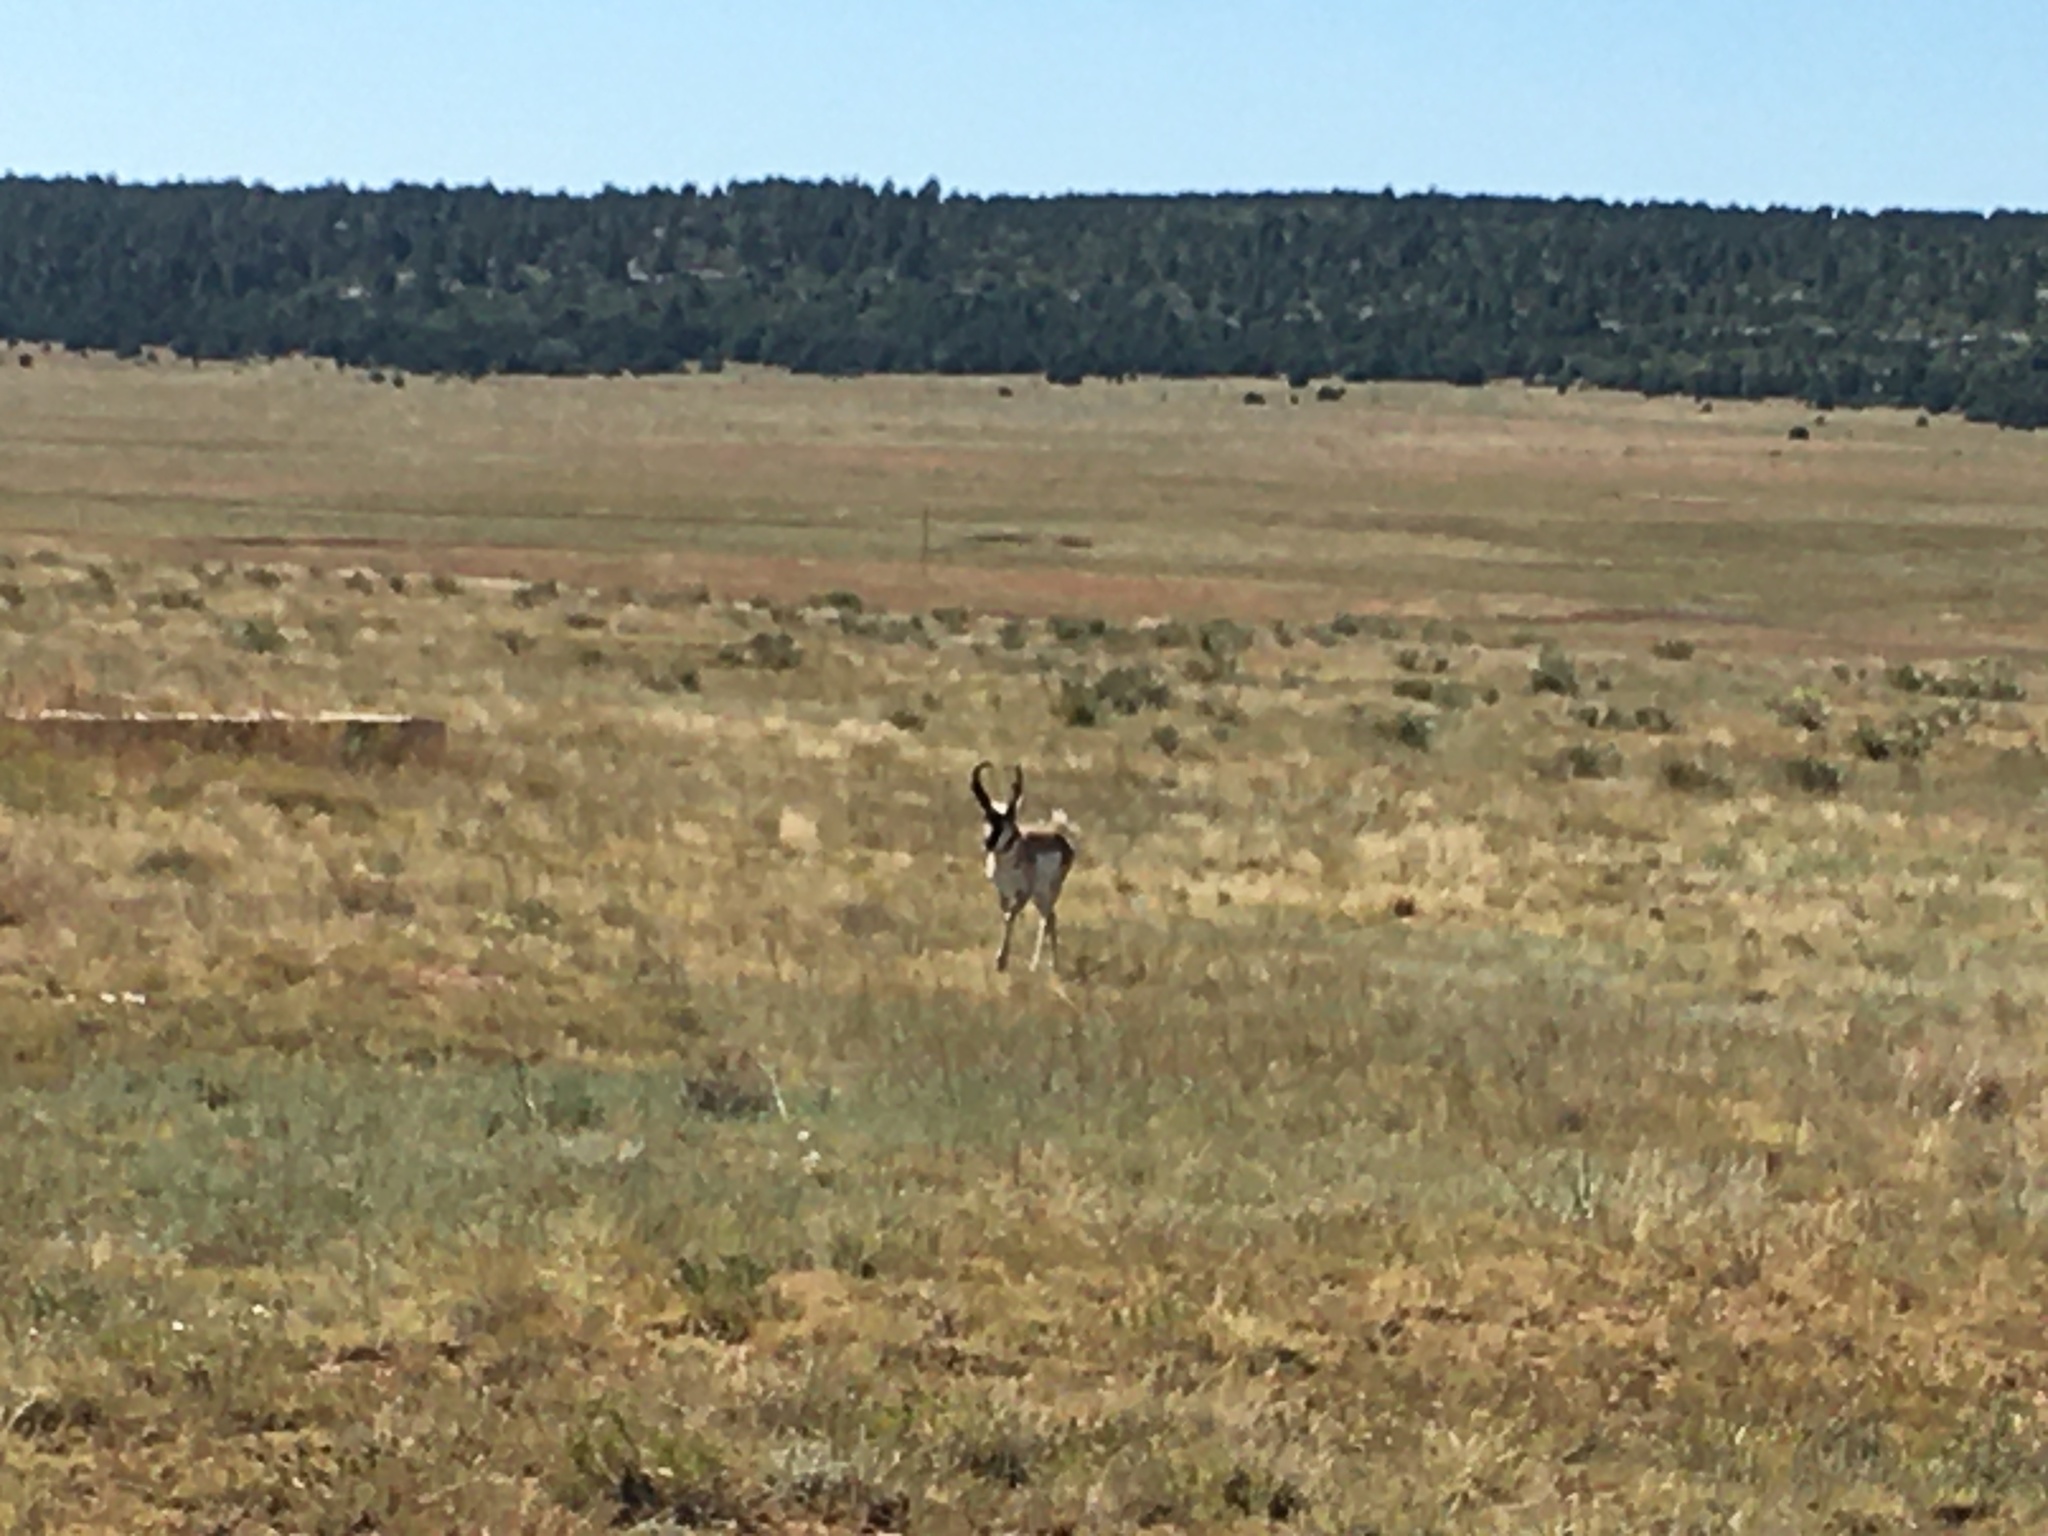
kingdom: Animalia
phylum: Chordata
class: Mammalia
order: Artiodactyla
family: Antilocapridae
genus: Antilocapra
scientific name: Antilocapra americana
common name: Pronghorn
